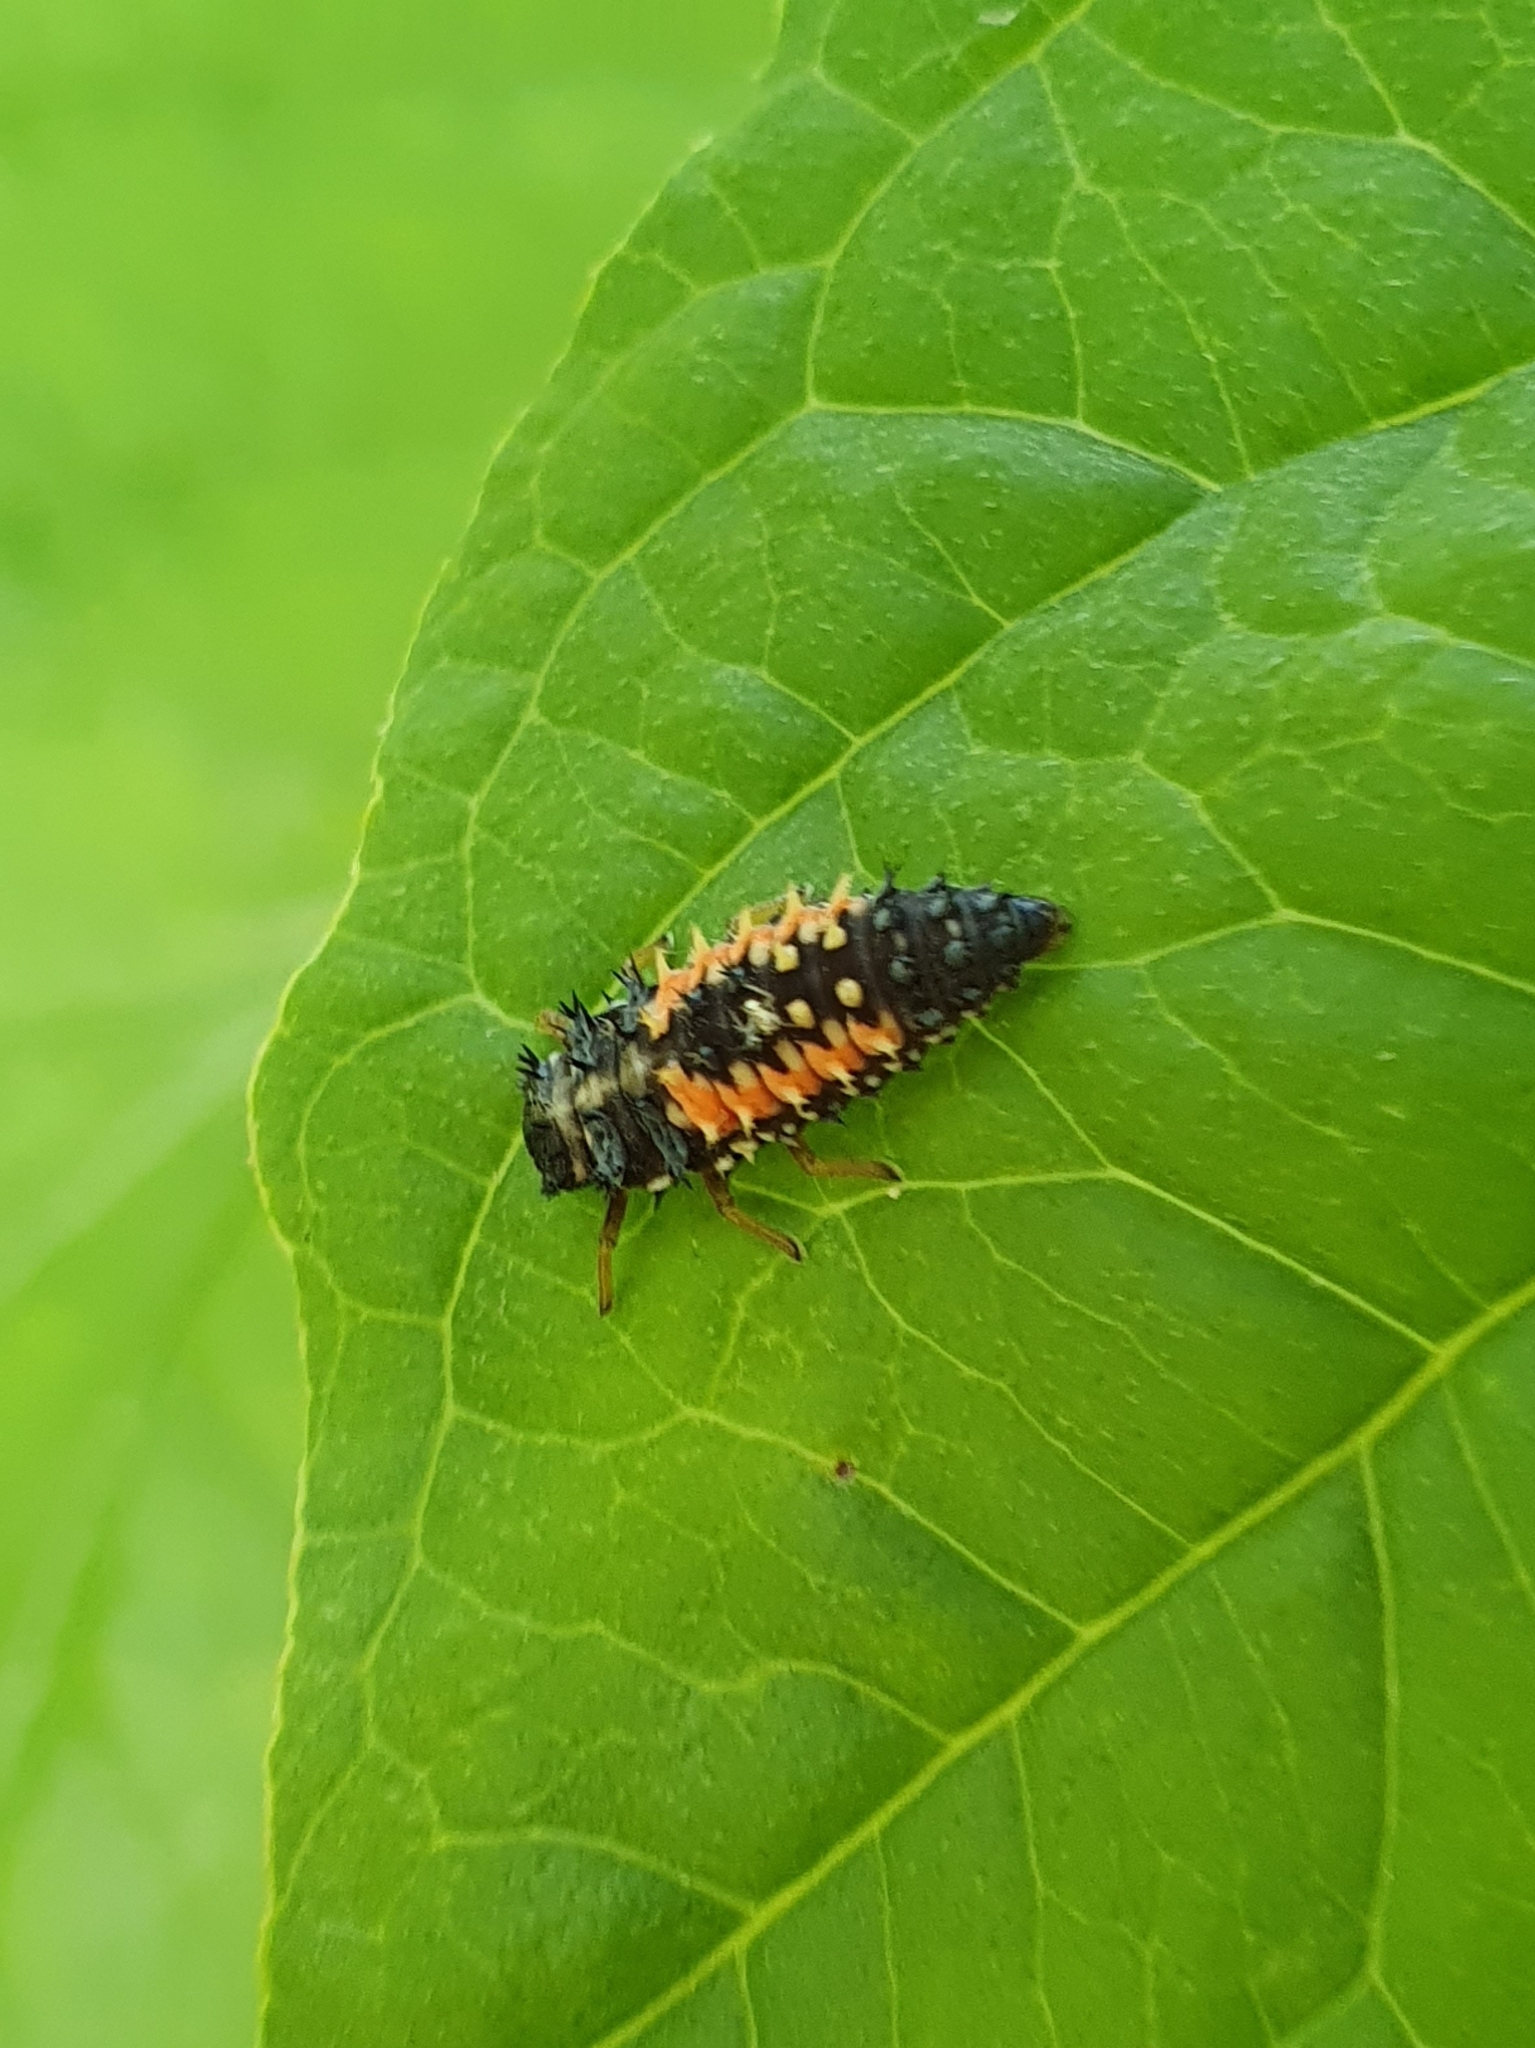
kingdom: Animalia
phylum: Arthropoda
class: Insecta
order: Coleoptera
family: Coccinellidae
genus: Harmonia
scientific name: Harmonia axyridis
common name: Harlequin ladybird
